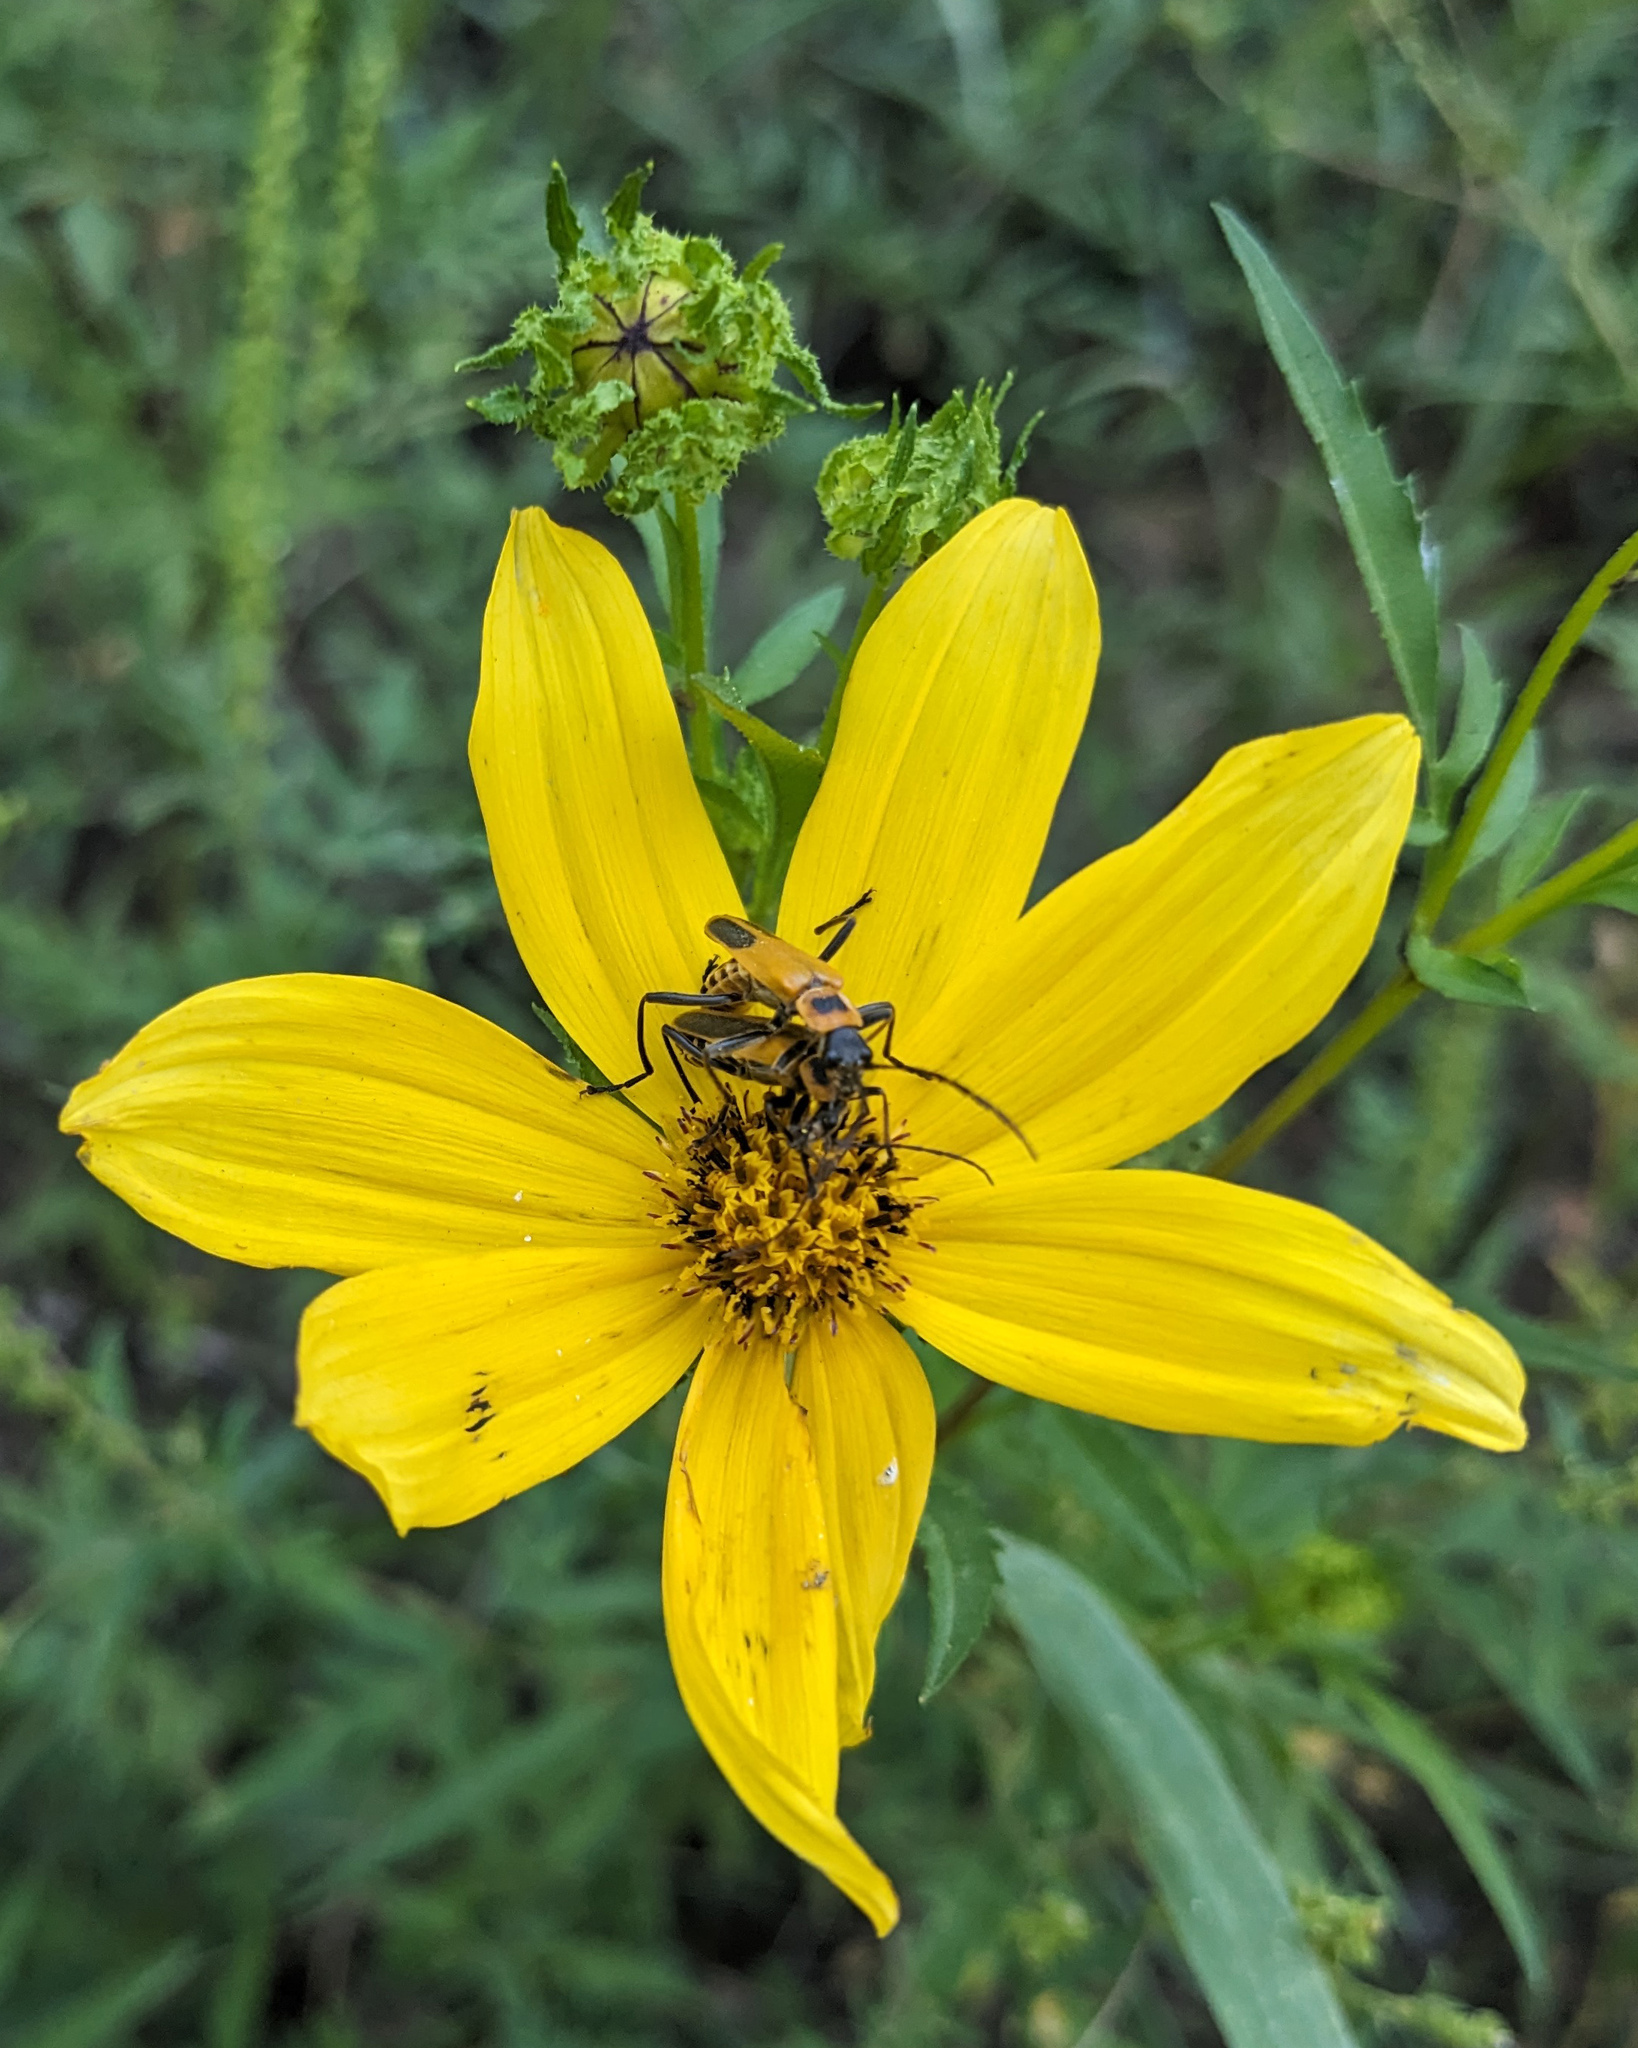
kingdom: Animalia
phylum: Arthropoda
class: Insecta
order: Coleoptera
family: Cantharidae
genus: Chauliognathus
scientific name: Chauliognathus pensylvanicus
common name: Goldenrod soldier beetle
